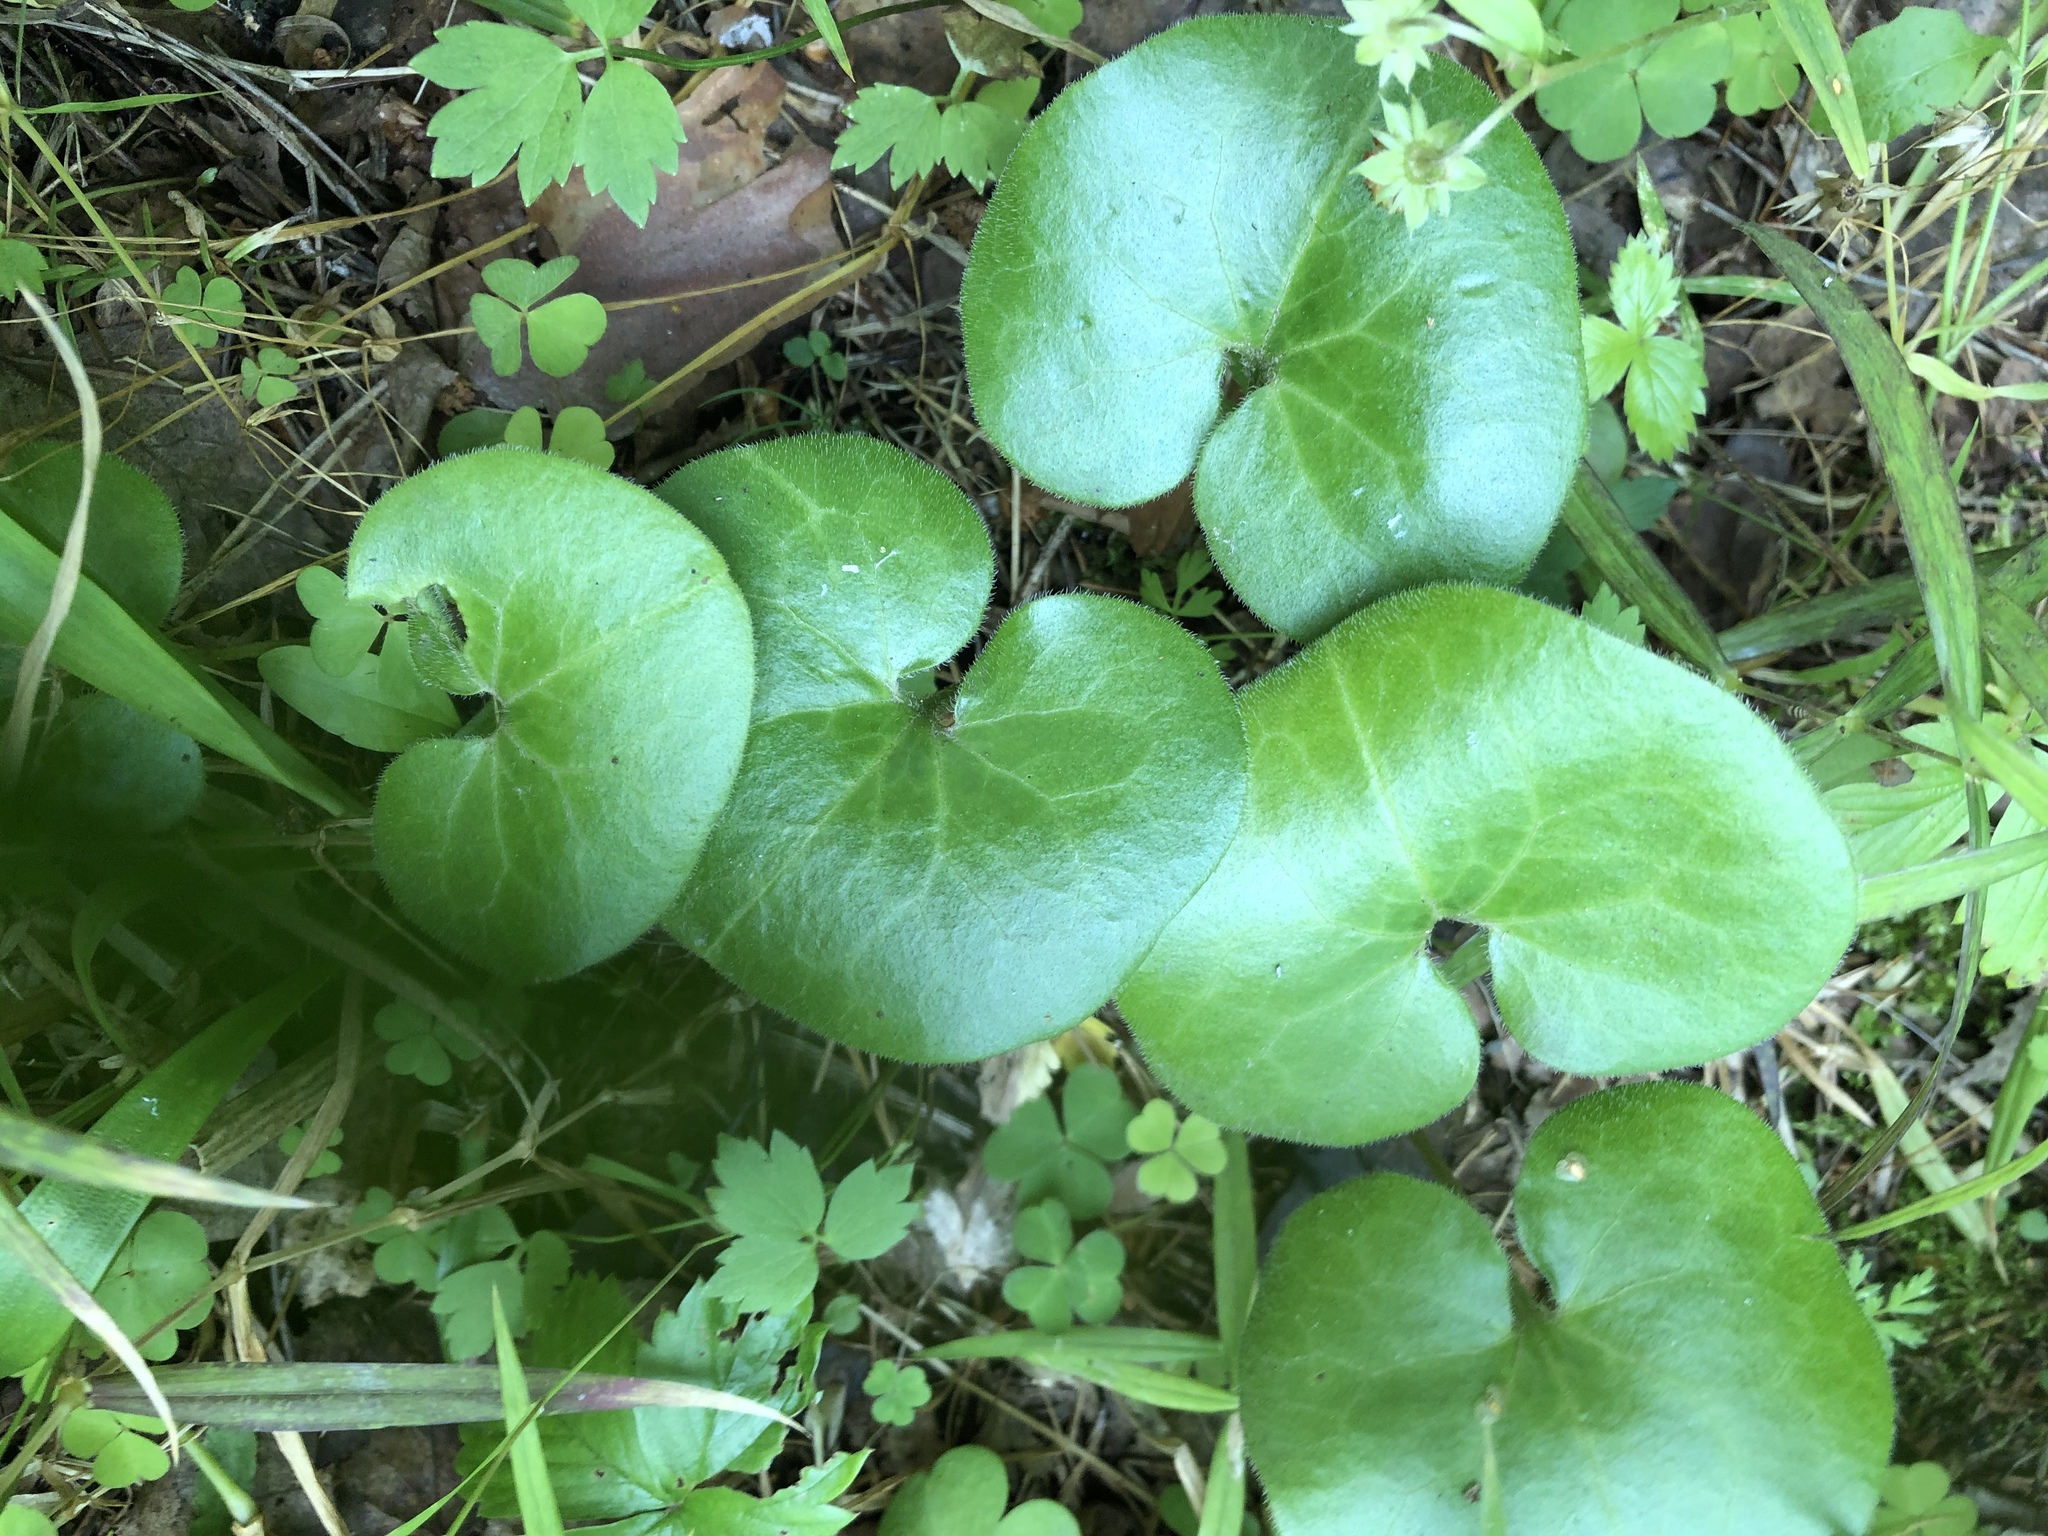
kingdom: Plantae
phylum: Tracheophyta
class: Magnoliopsida
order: Piperales
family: Aristolochiaceae
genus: Asarum
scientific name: Asarum europaeum
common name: Asarabacca
